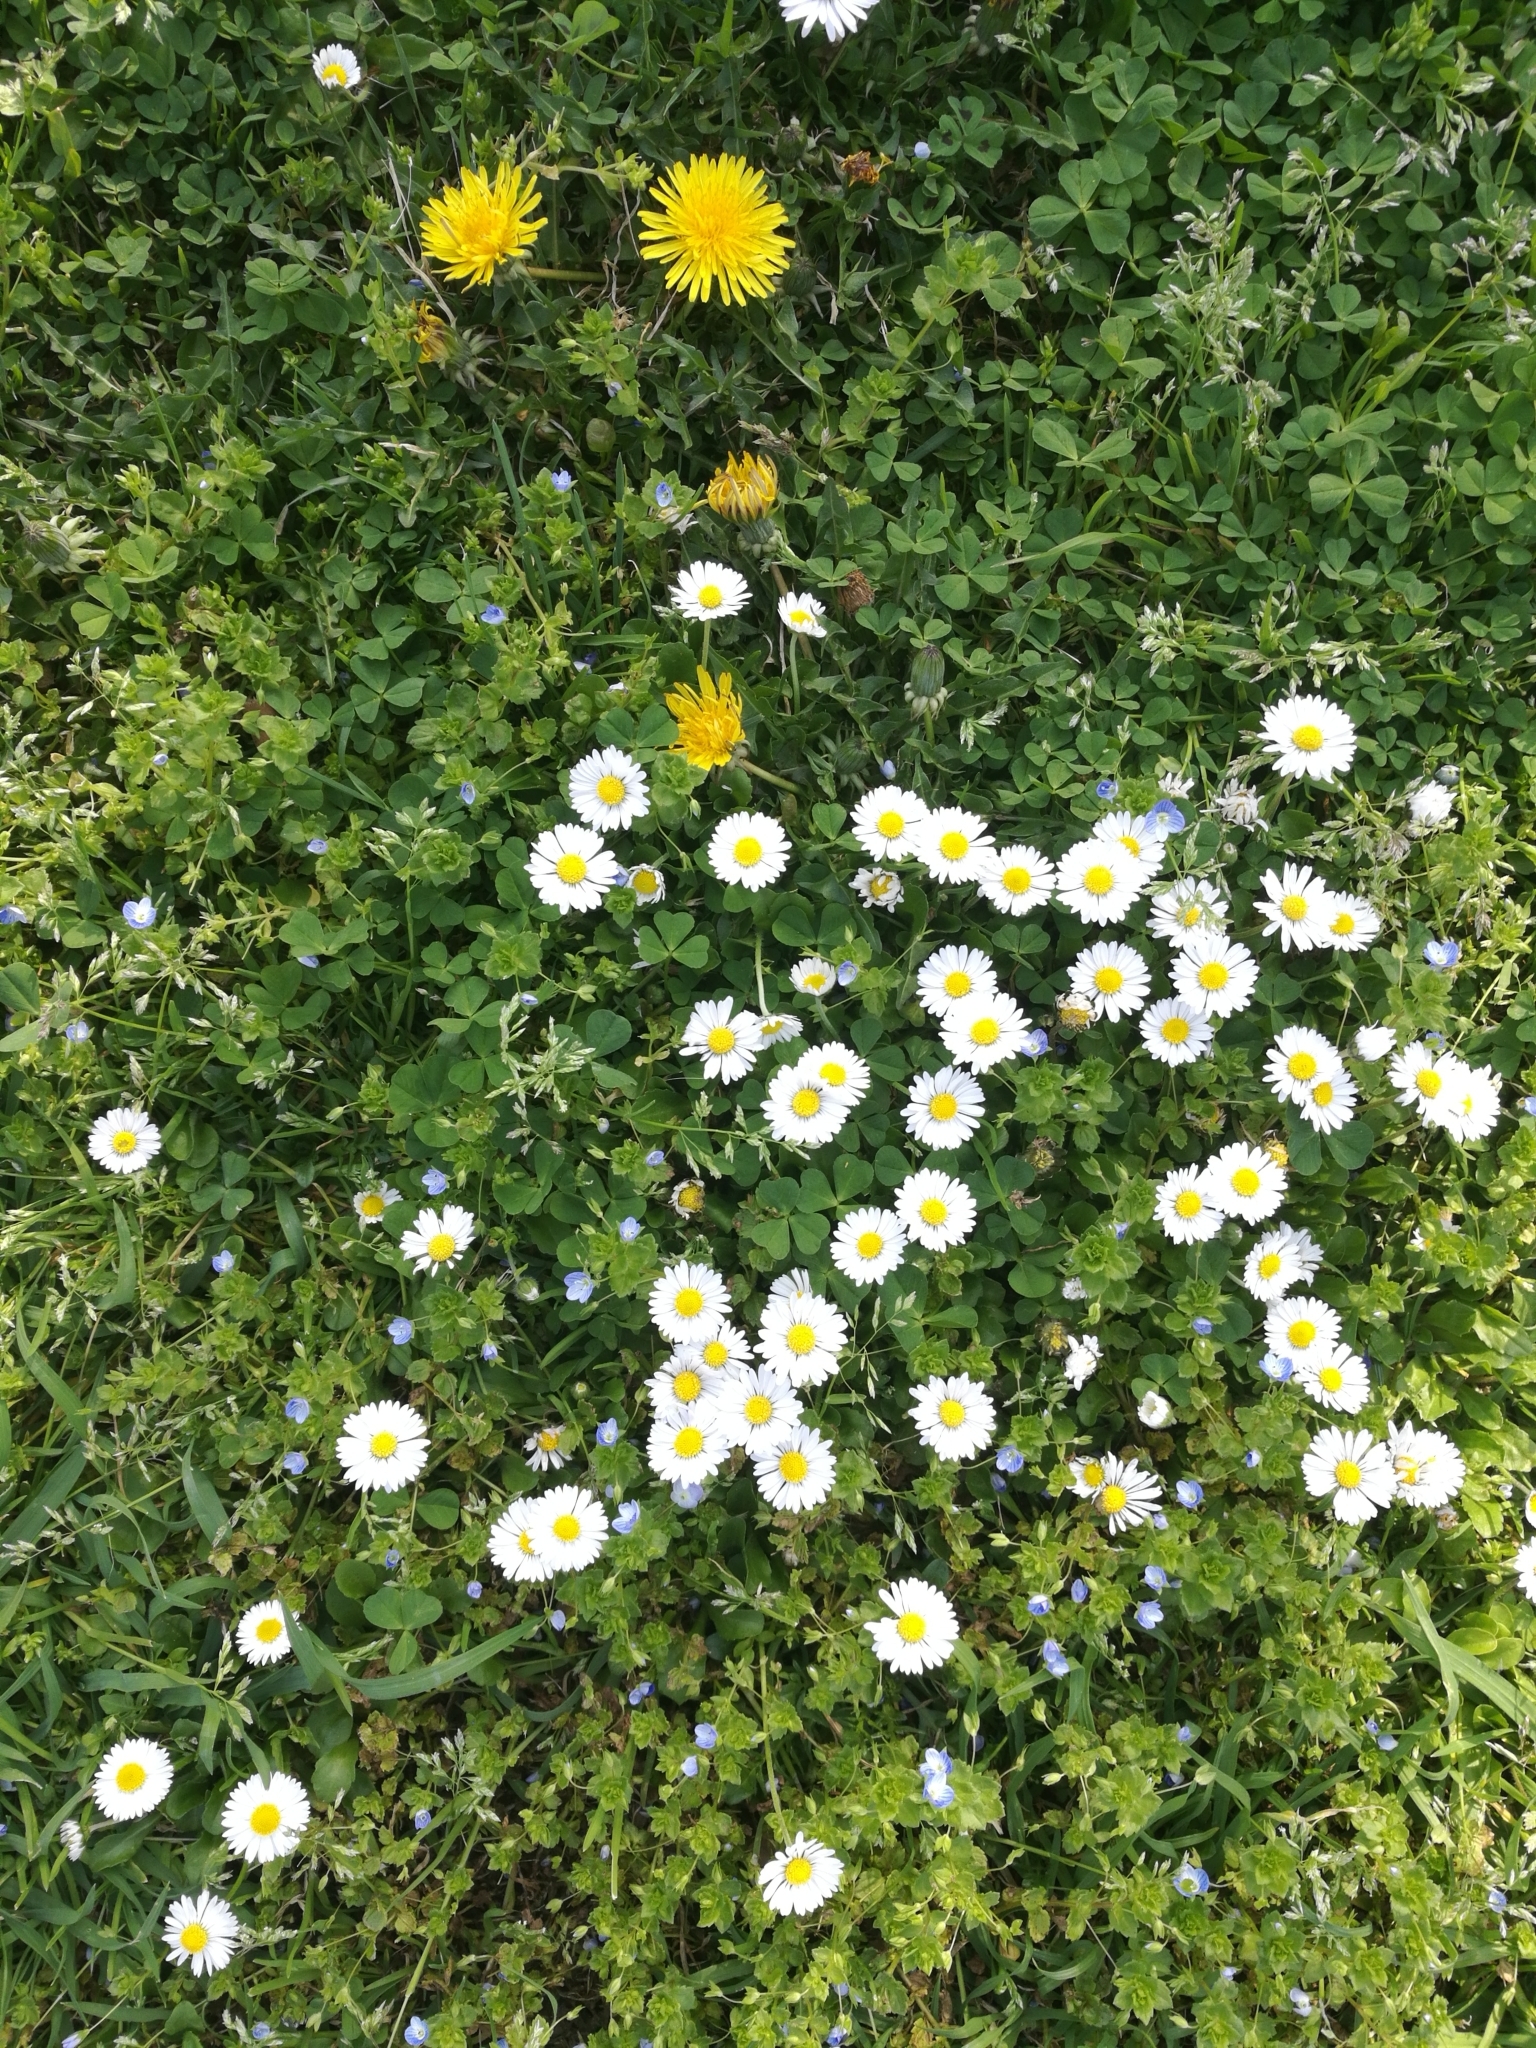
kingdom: Plantae
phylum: Tracheophyta
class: Magnoliopsida
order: Asterales
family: Asteraceae
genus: Bellis
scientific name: Bellis perennis
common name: Lawndaisy
